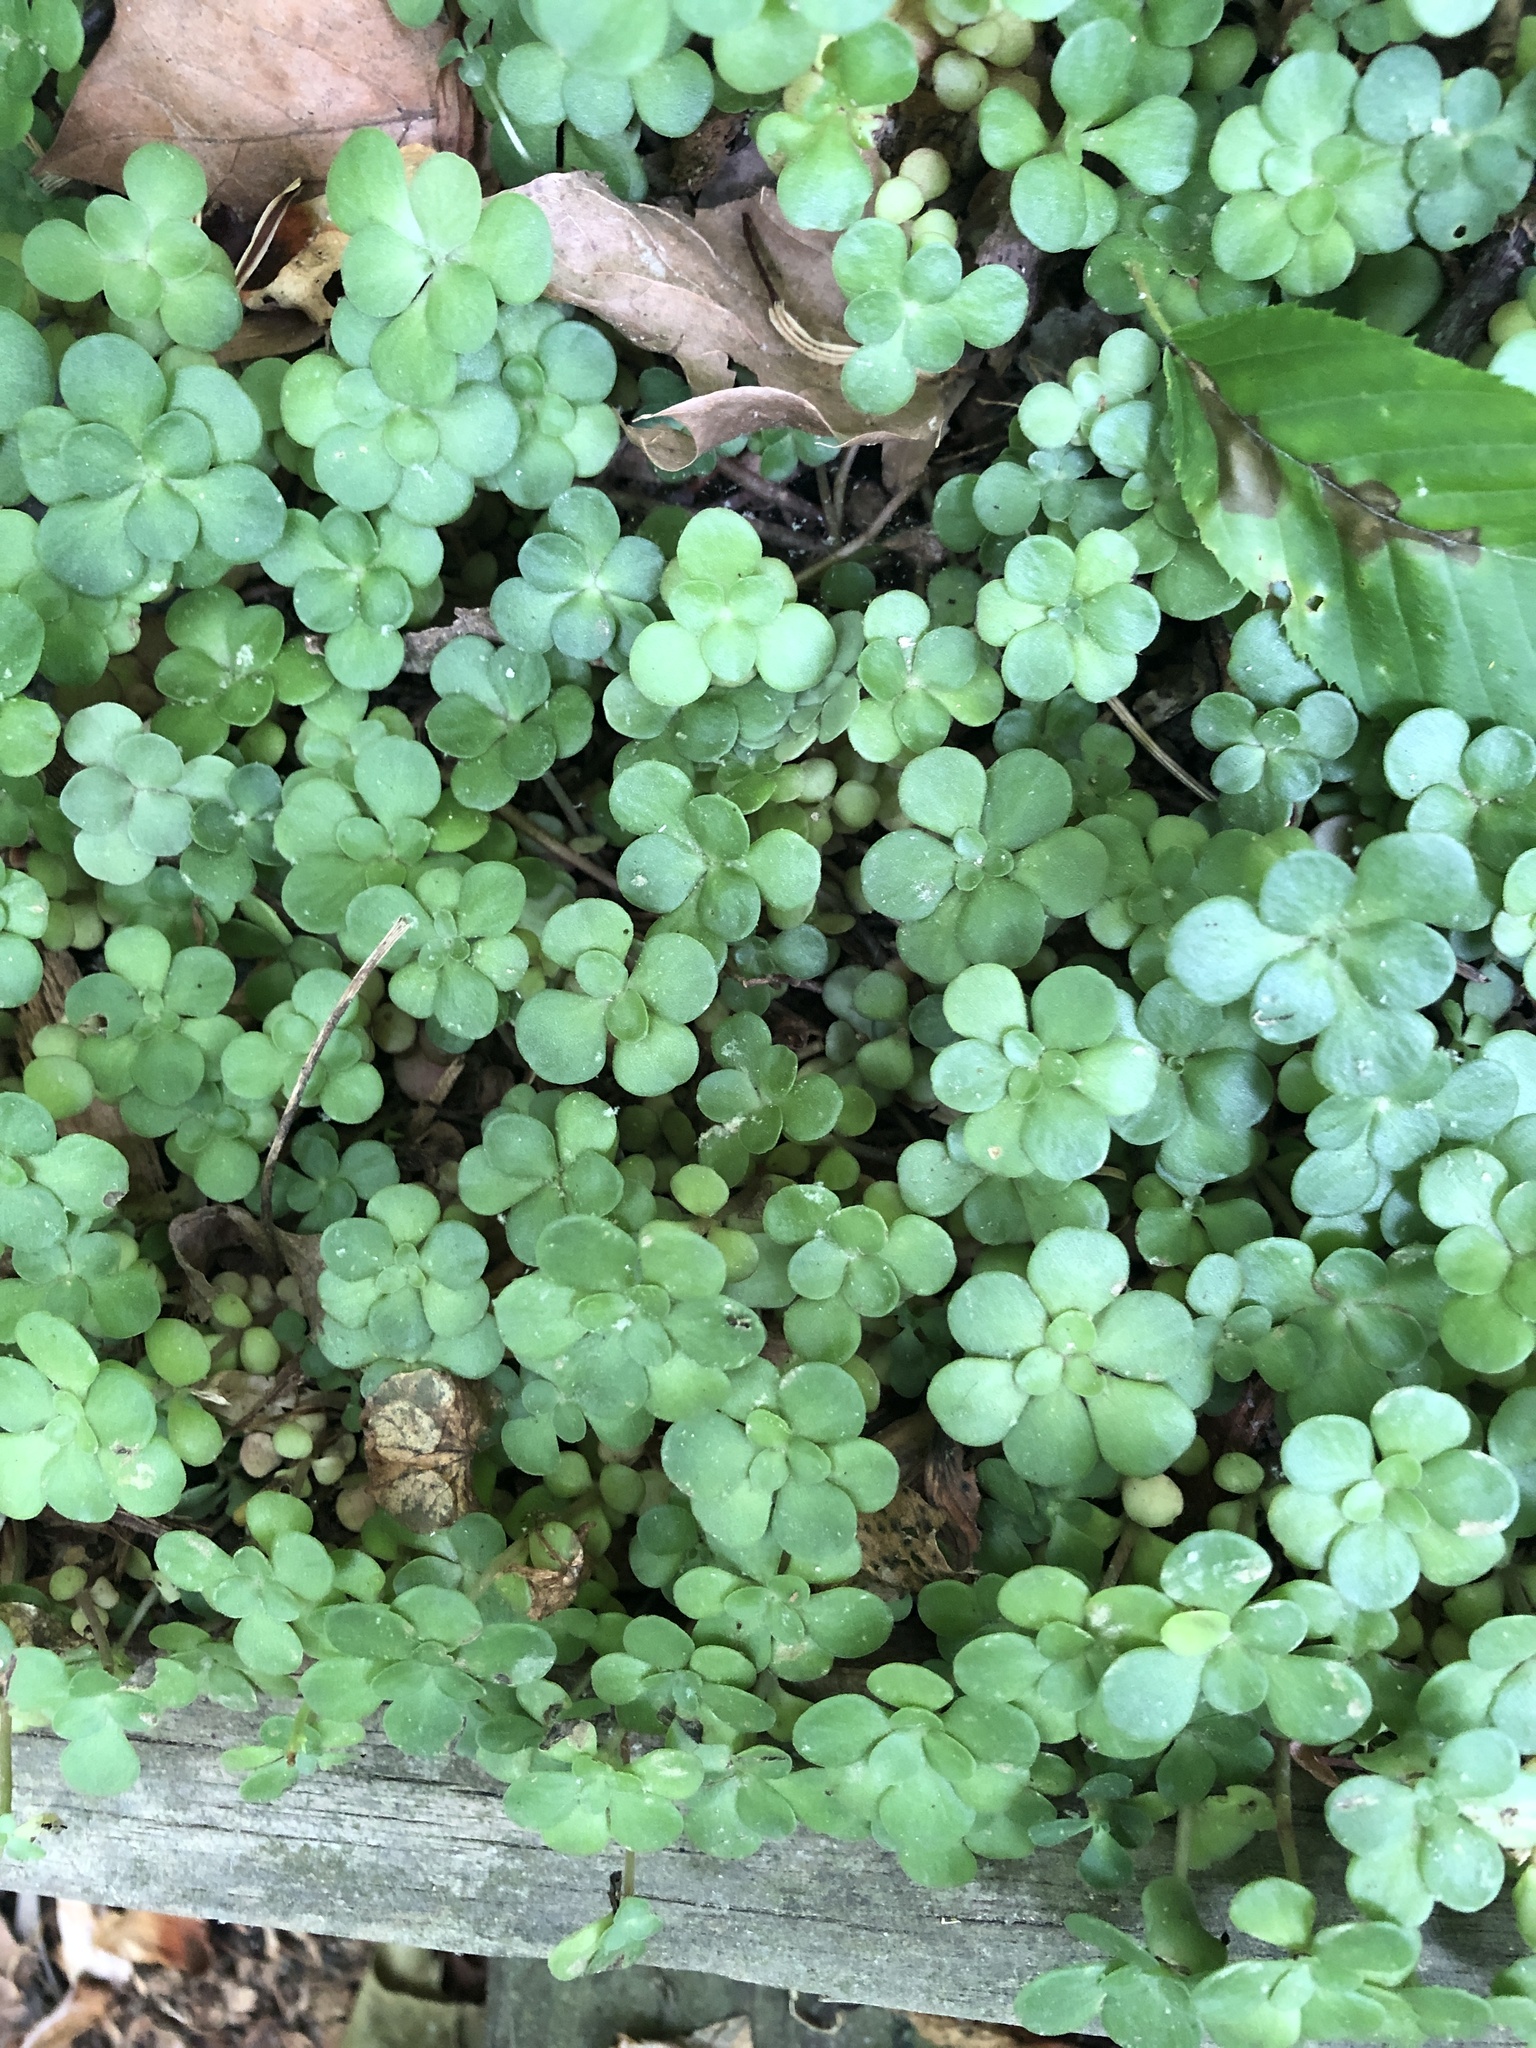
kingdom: Plantae
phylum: Tracheophyta
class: Magnoliopsida
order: Saxifragales
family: Crassulaceae
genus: Sedum
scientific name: Sedum ternatum
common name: Wild stonecrop
